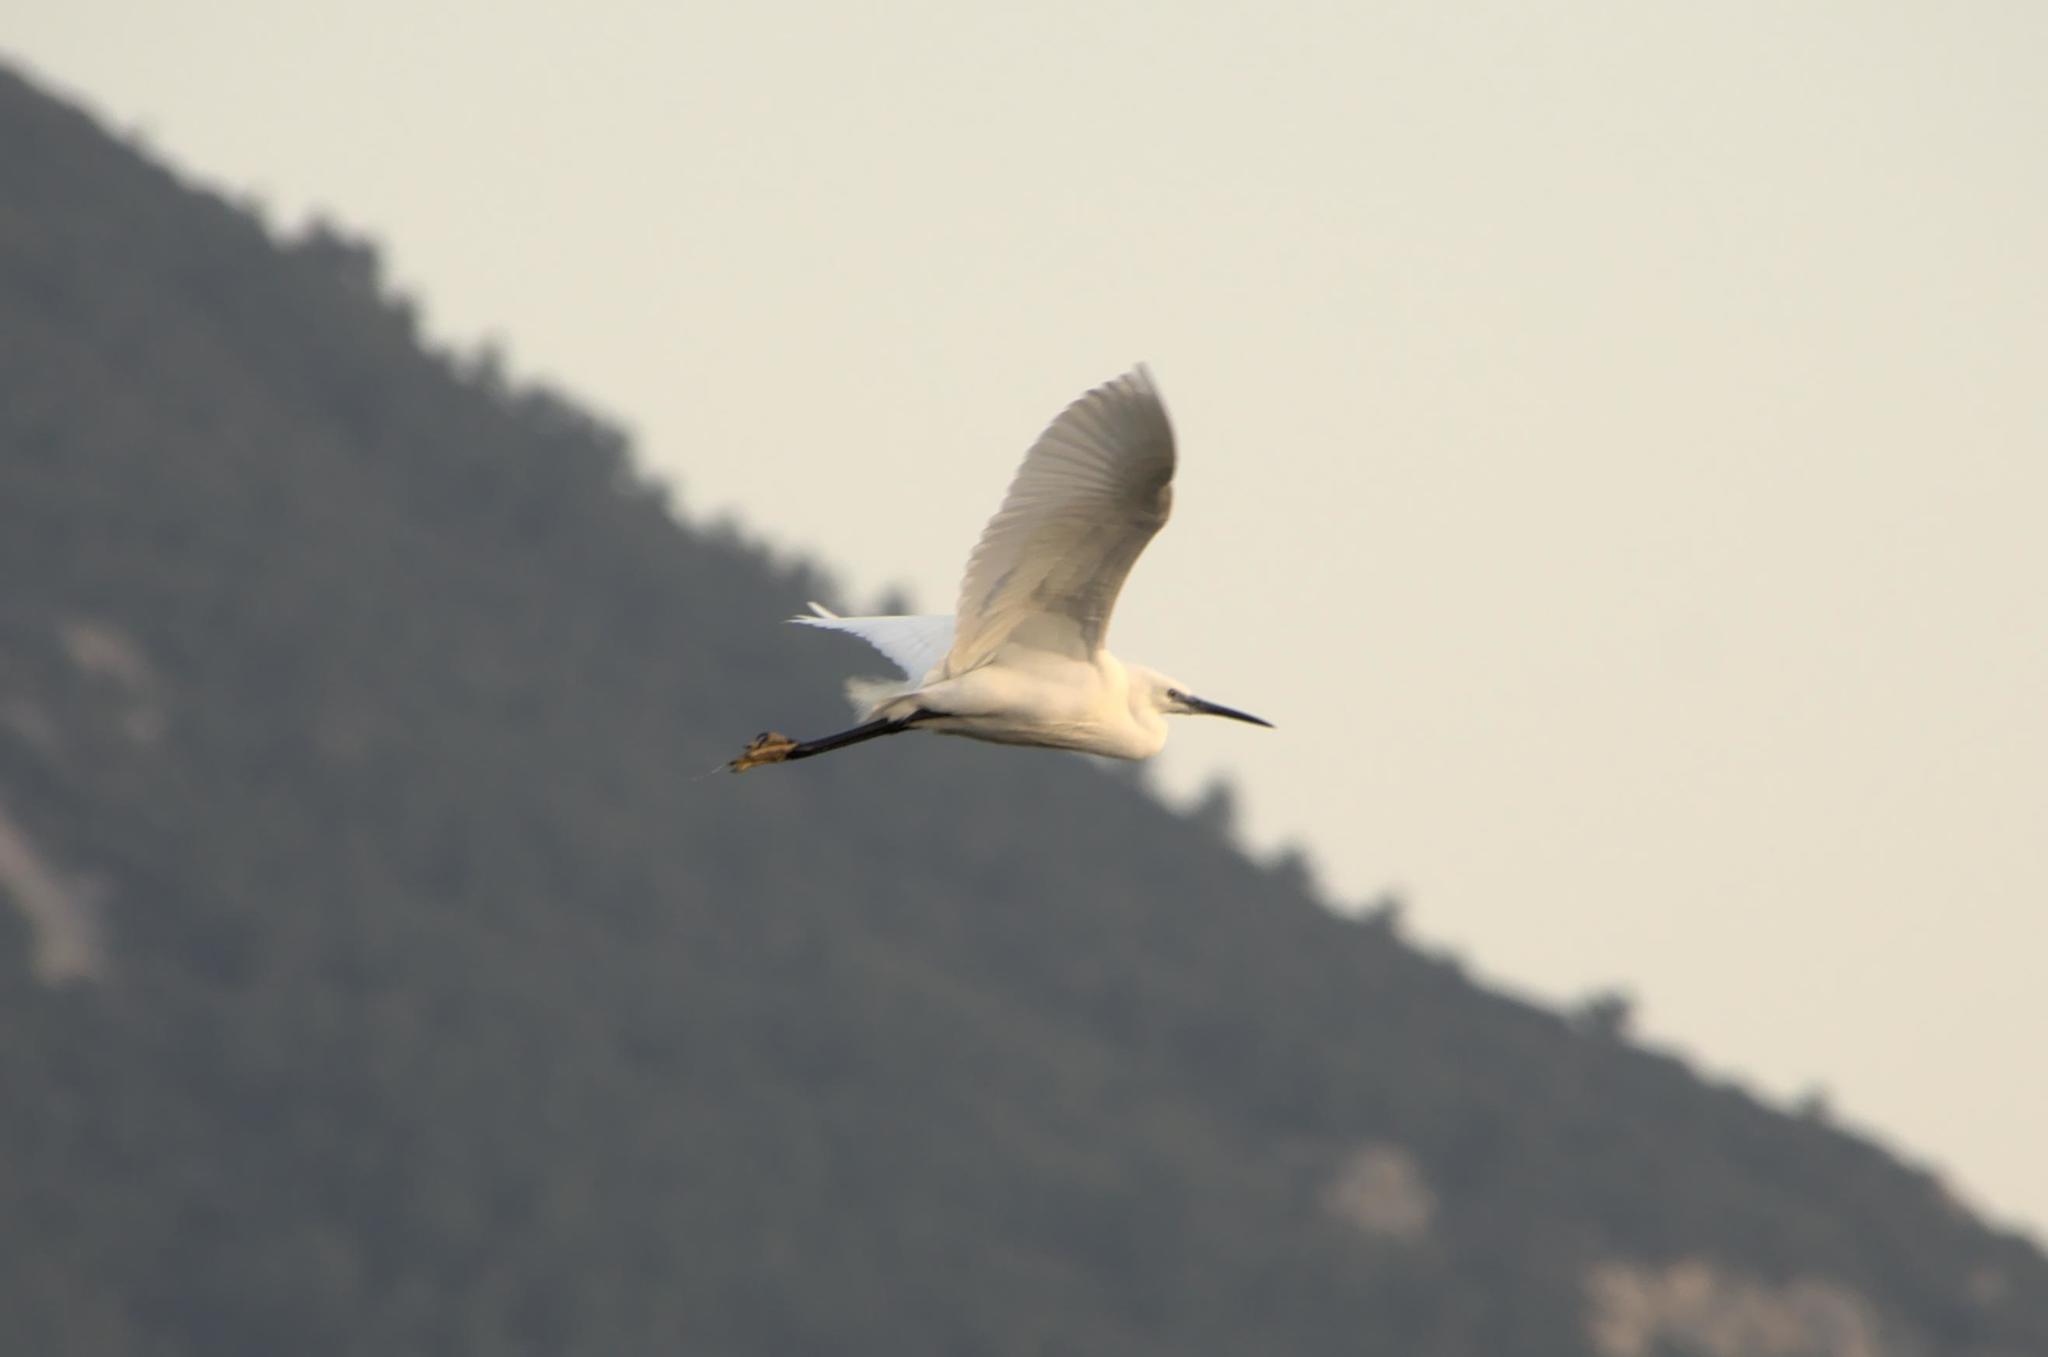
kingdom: Animalia
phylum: Chordata
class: Aves
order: Pelecaniformes
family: Ardeidae
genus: Egretta
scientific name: Egretta garzetta
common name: Little egret
